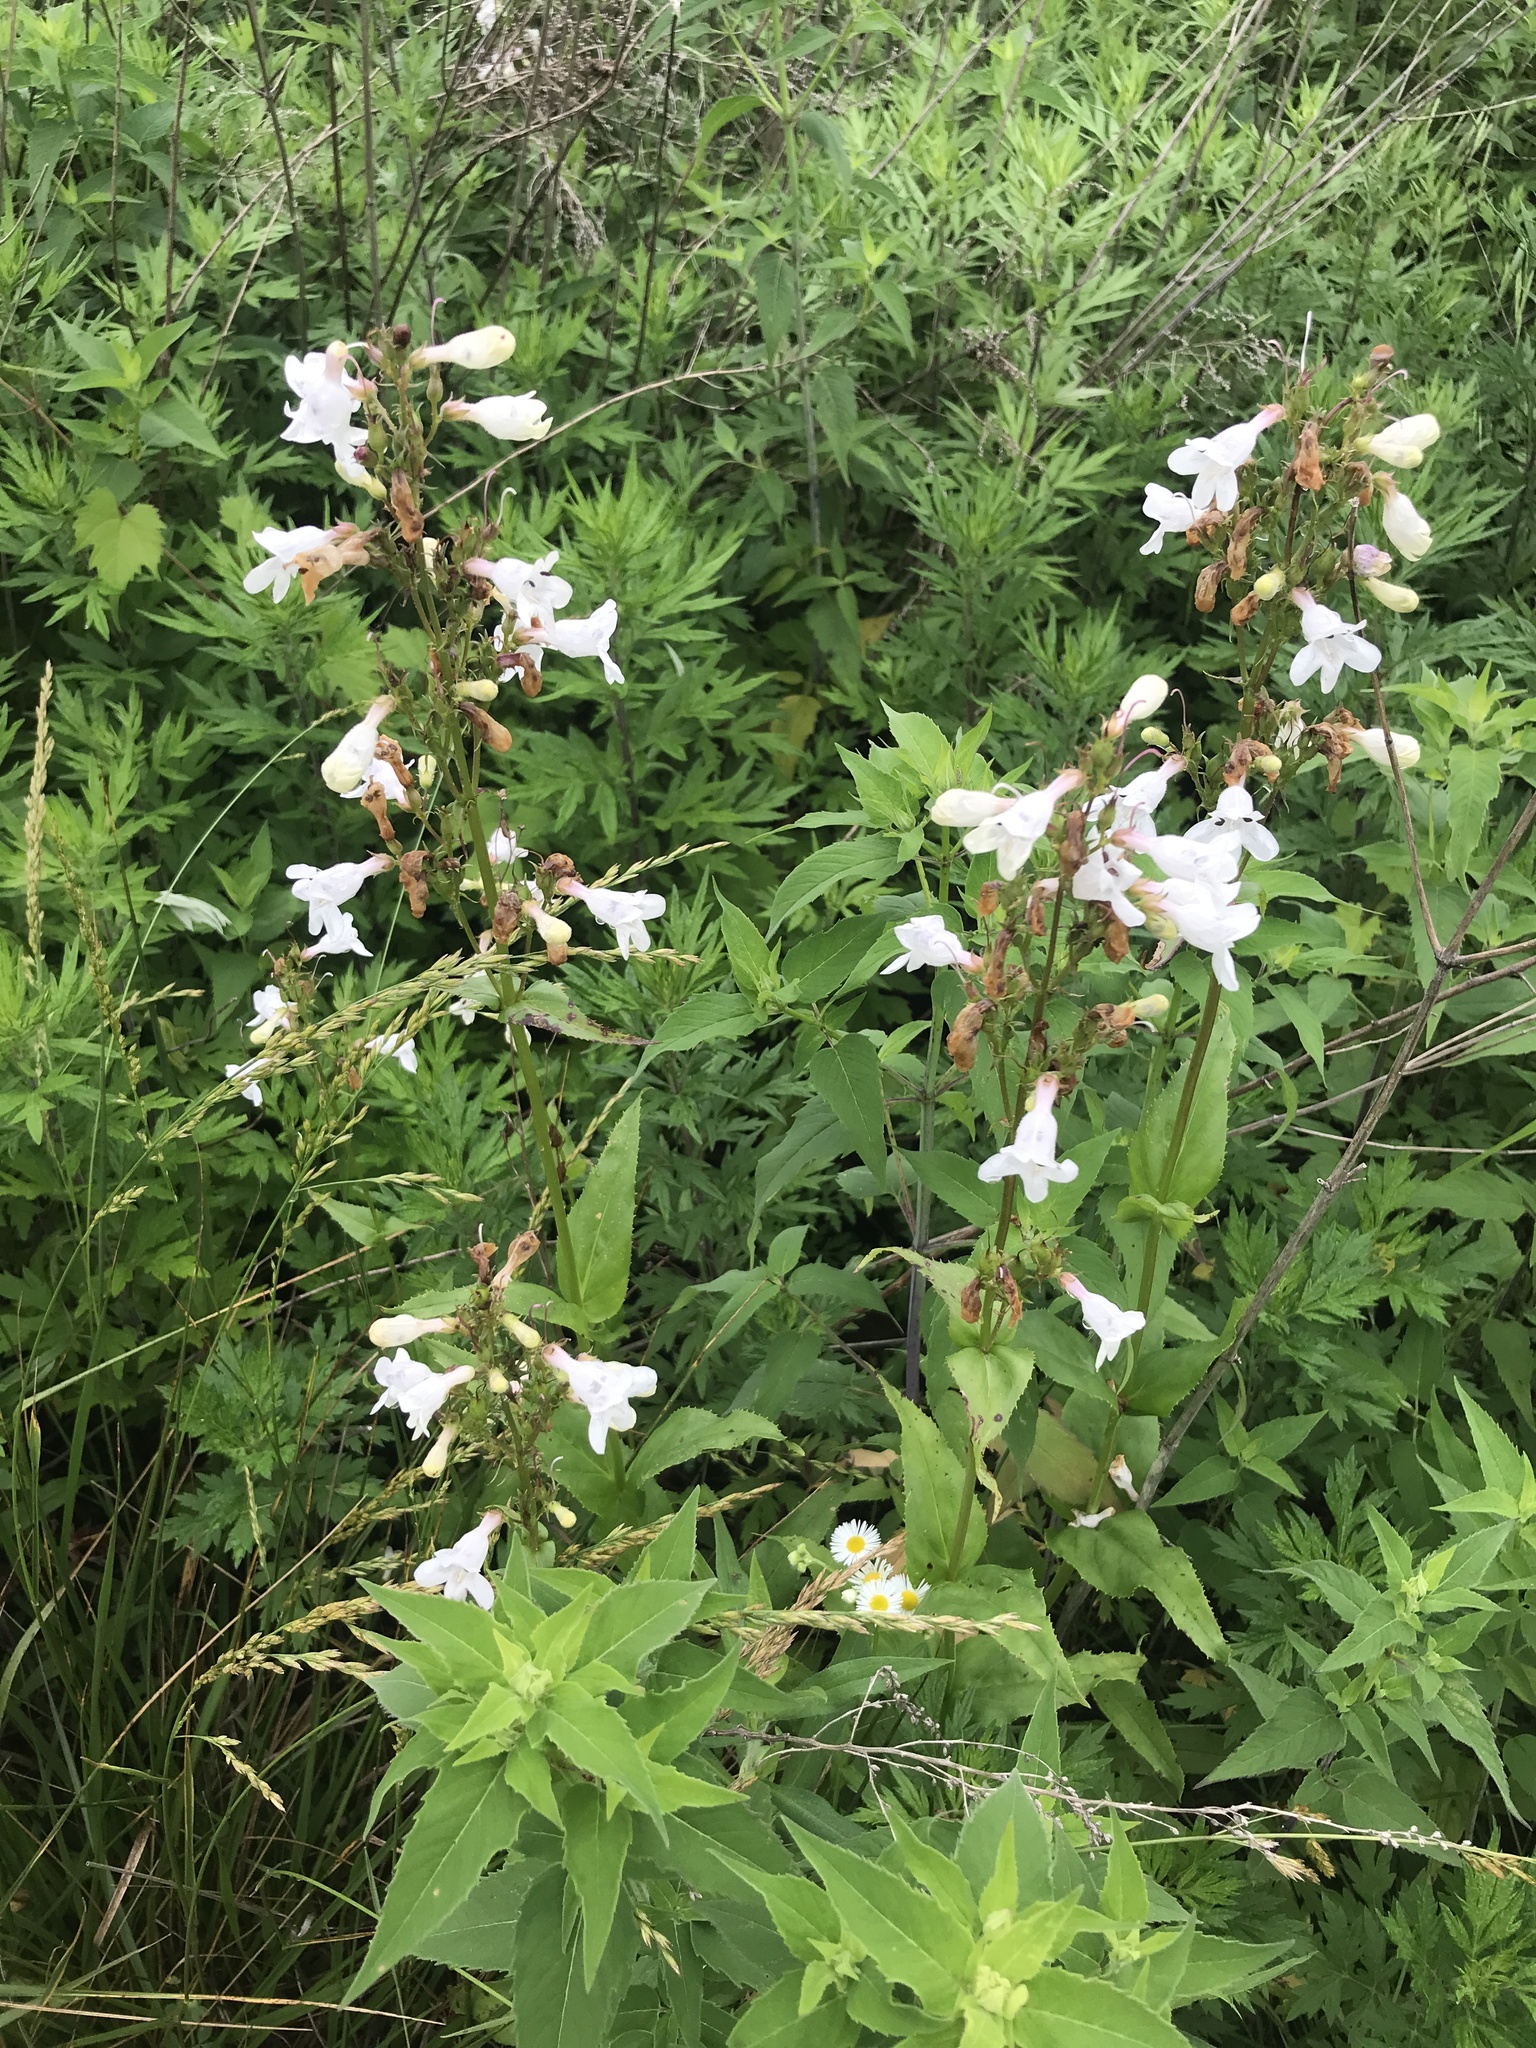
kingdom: Plantae
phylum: Tracheophyta
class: Magnoliopsida
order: Lamiales
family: Plantaginaceae
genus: Penstemon
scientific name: Penstemon digitalis
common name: Foxglove beardtongue
